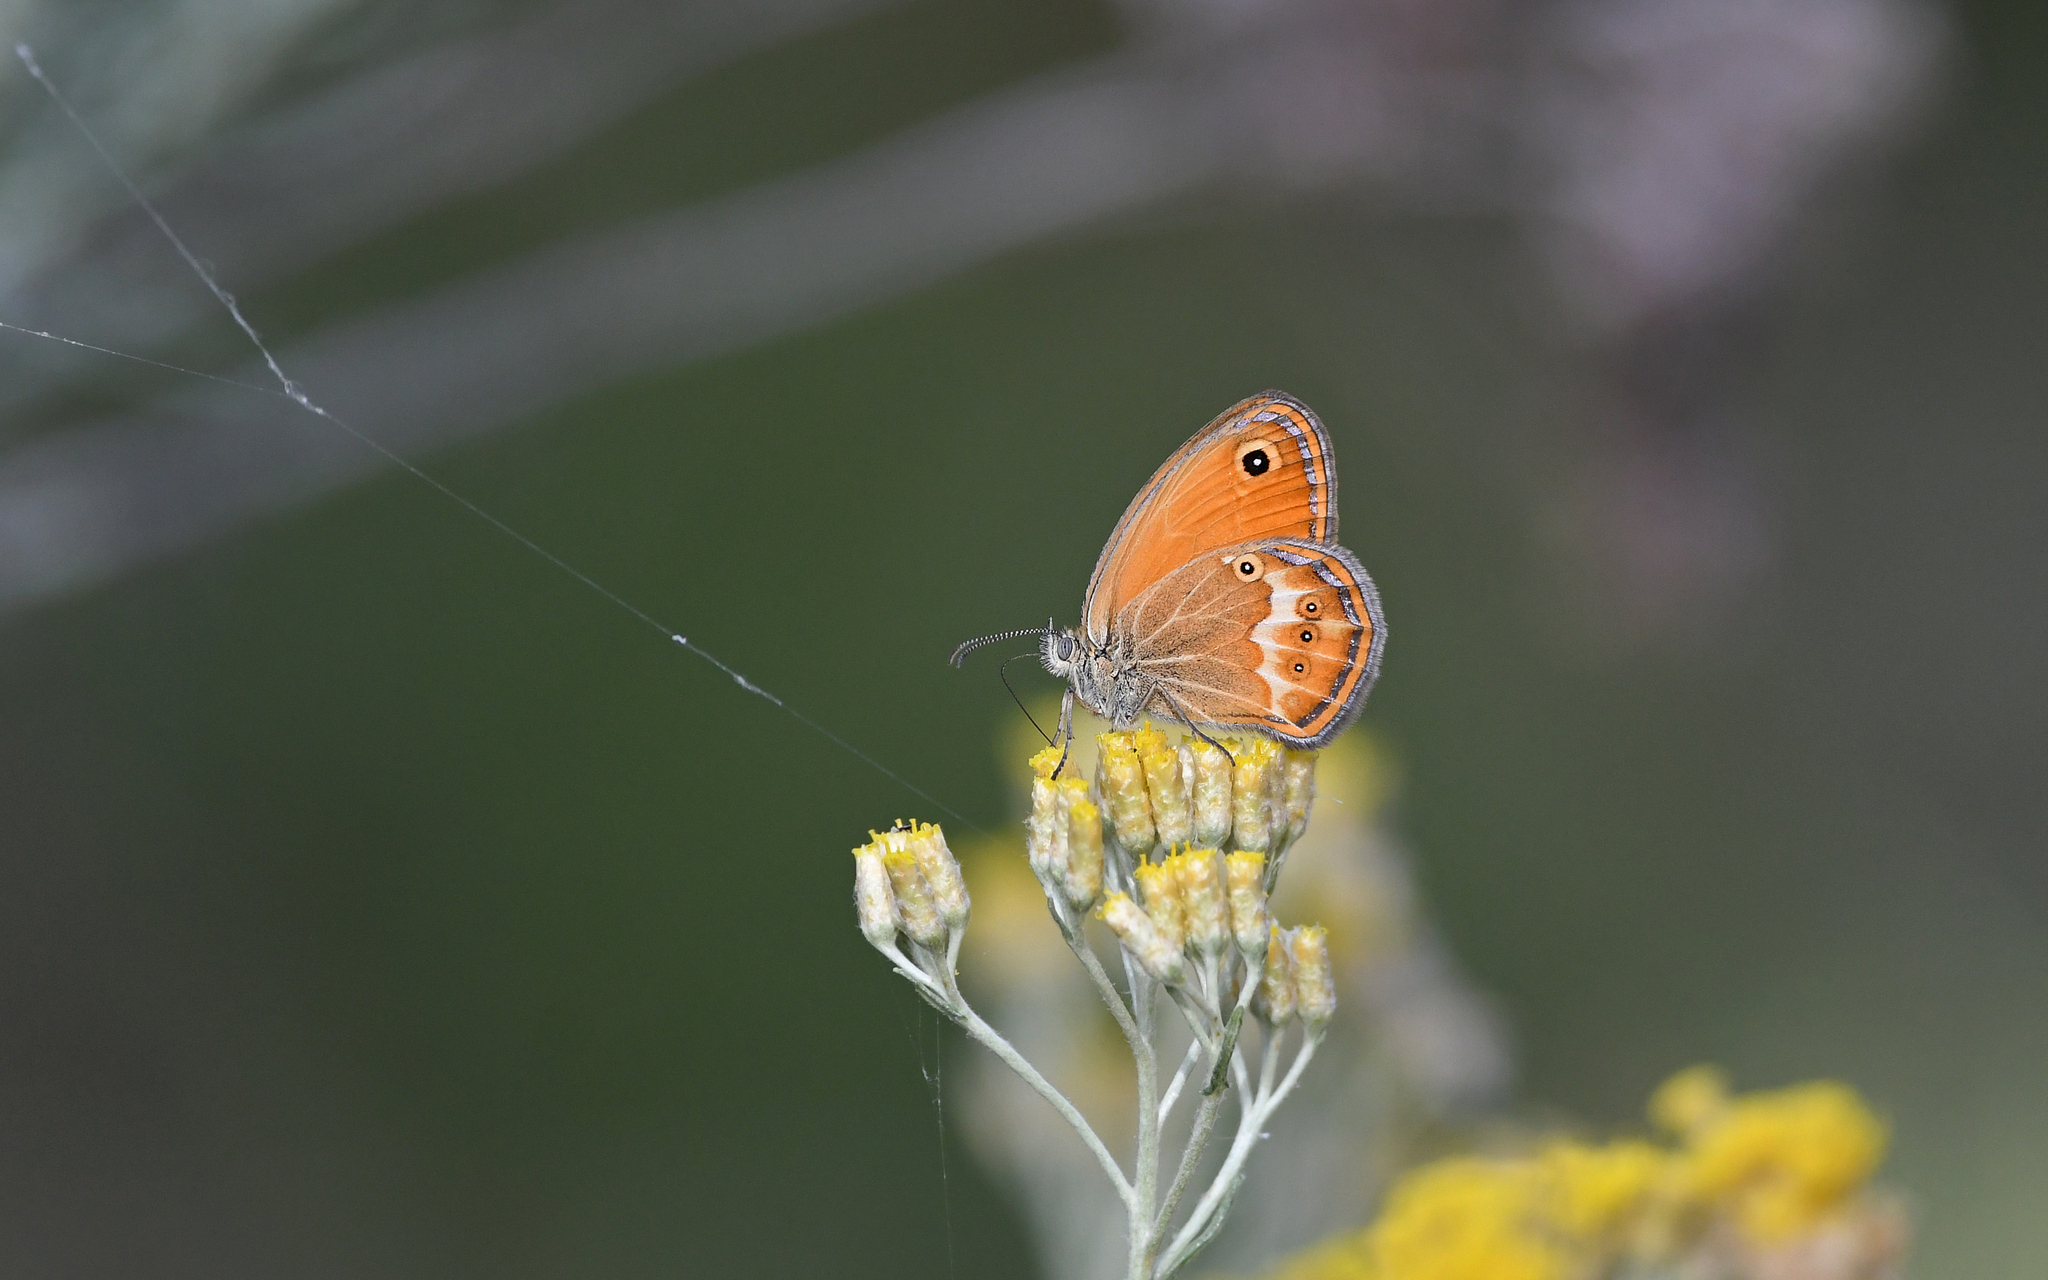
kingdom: Animalia
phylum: Arthropoda
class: Insecta
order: Lepidoptera
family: Nymphalidae
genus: Coenonympha
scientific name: Coenonympha corinna
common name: Corsican heath
